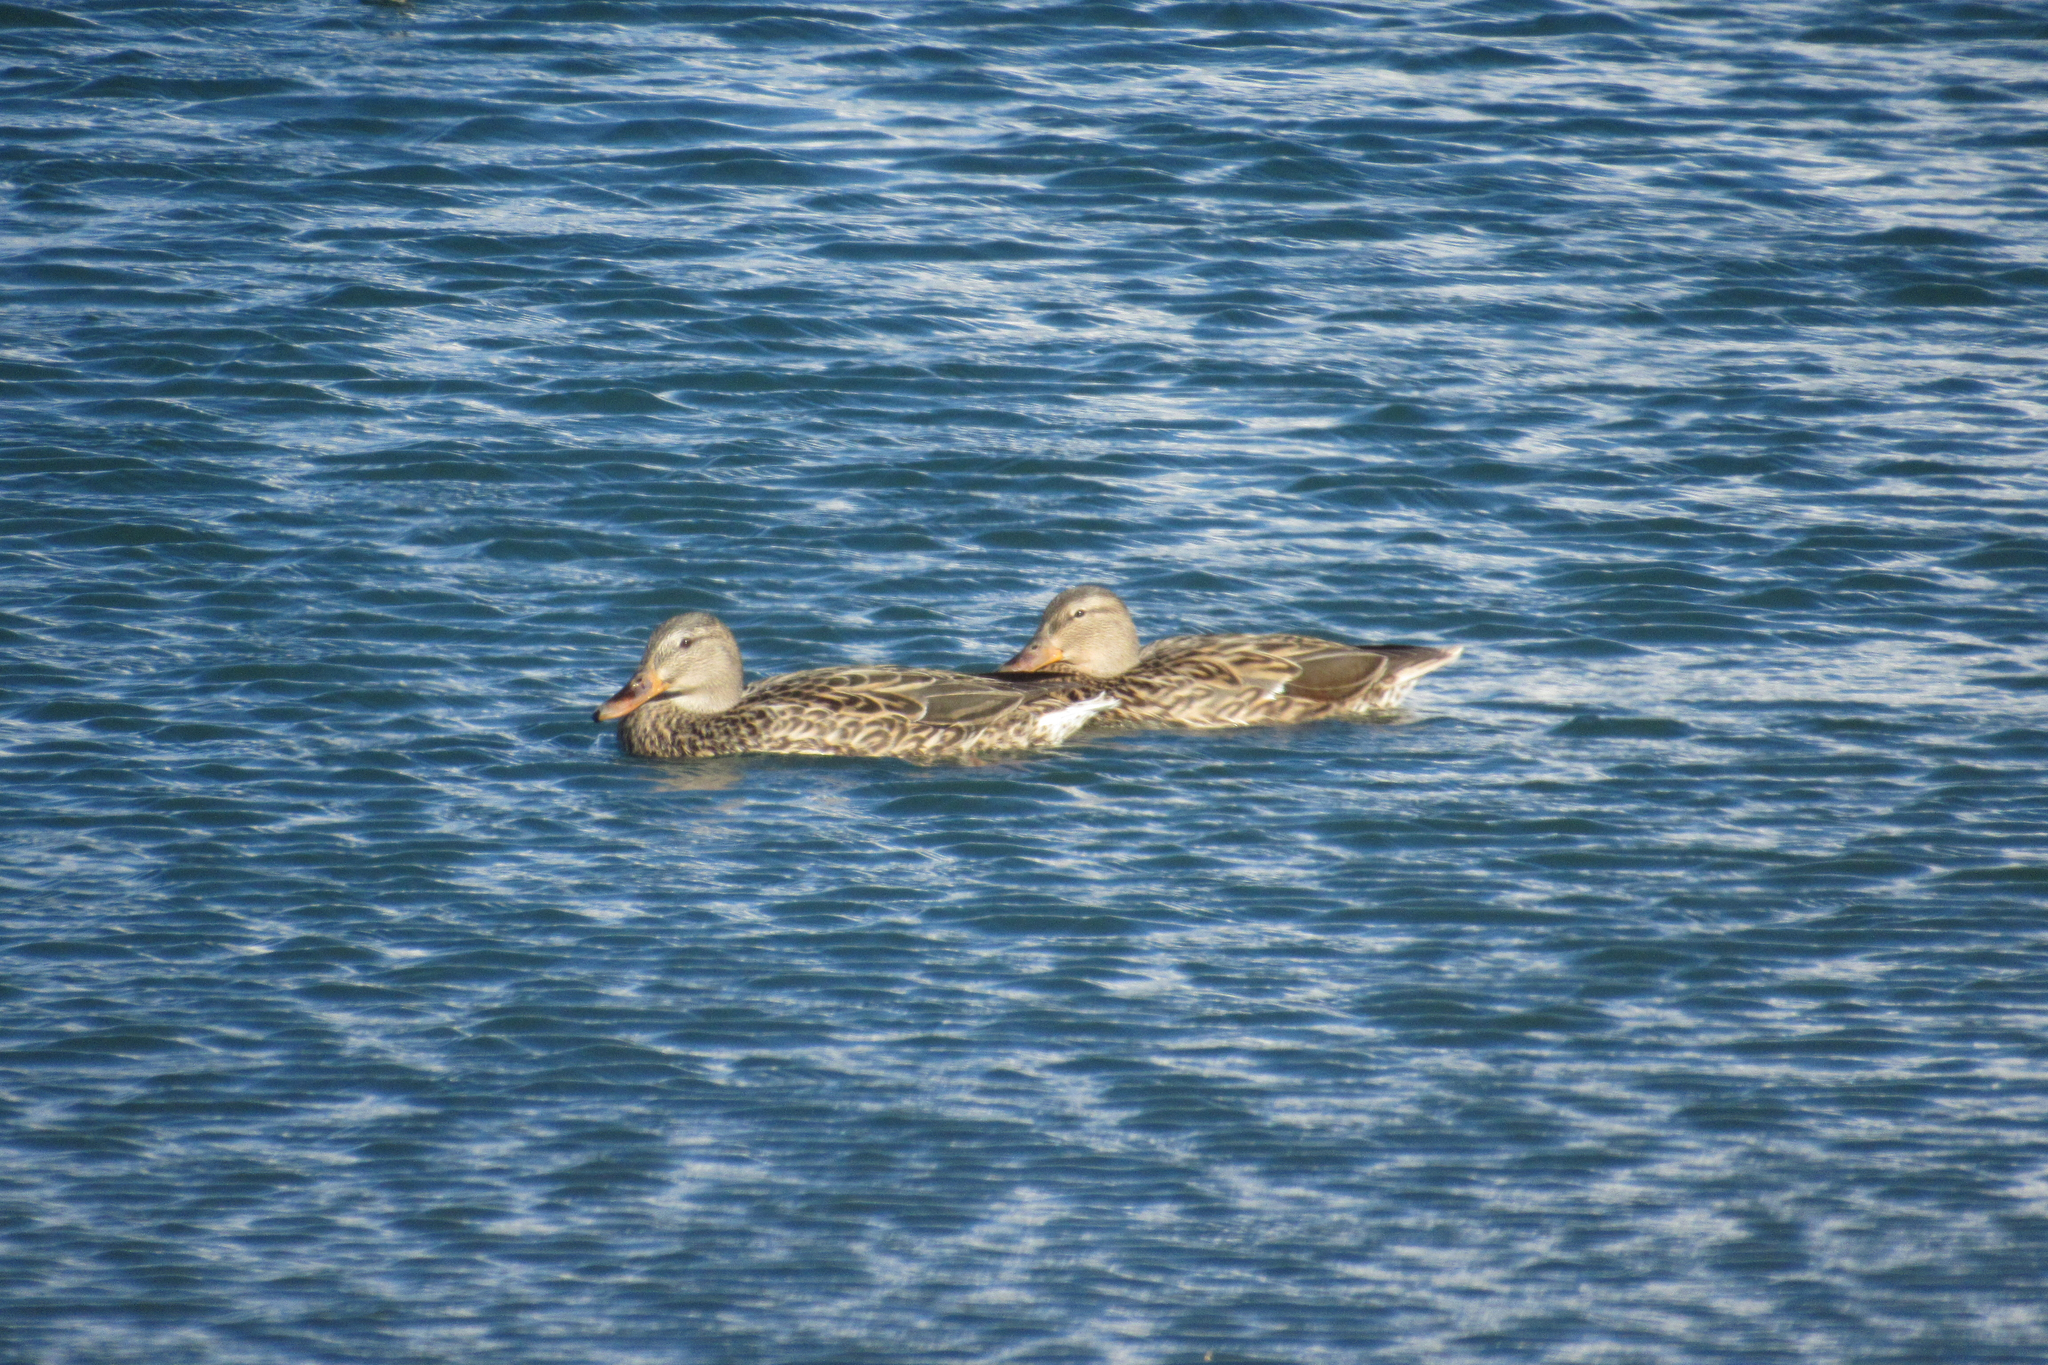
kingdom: Animalia
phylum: Chordata
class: Aves
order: Anseriformes
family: Anatidae
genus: Anas
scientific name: Anas platyrhynchos
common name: Mallard
